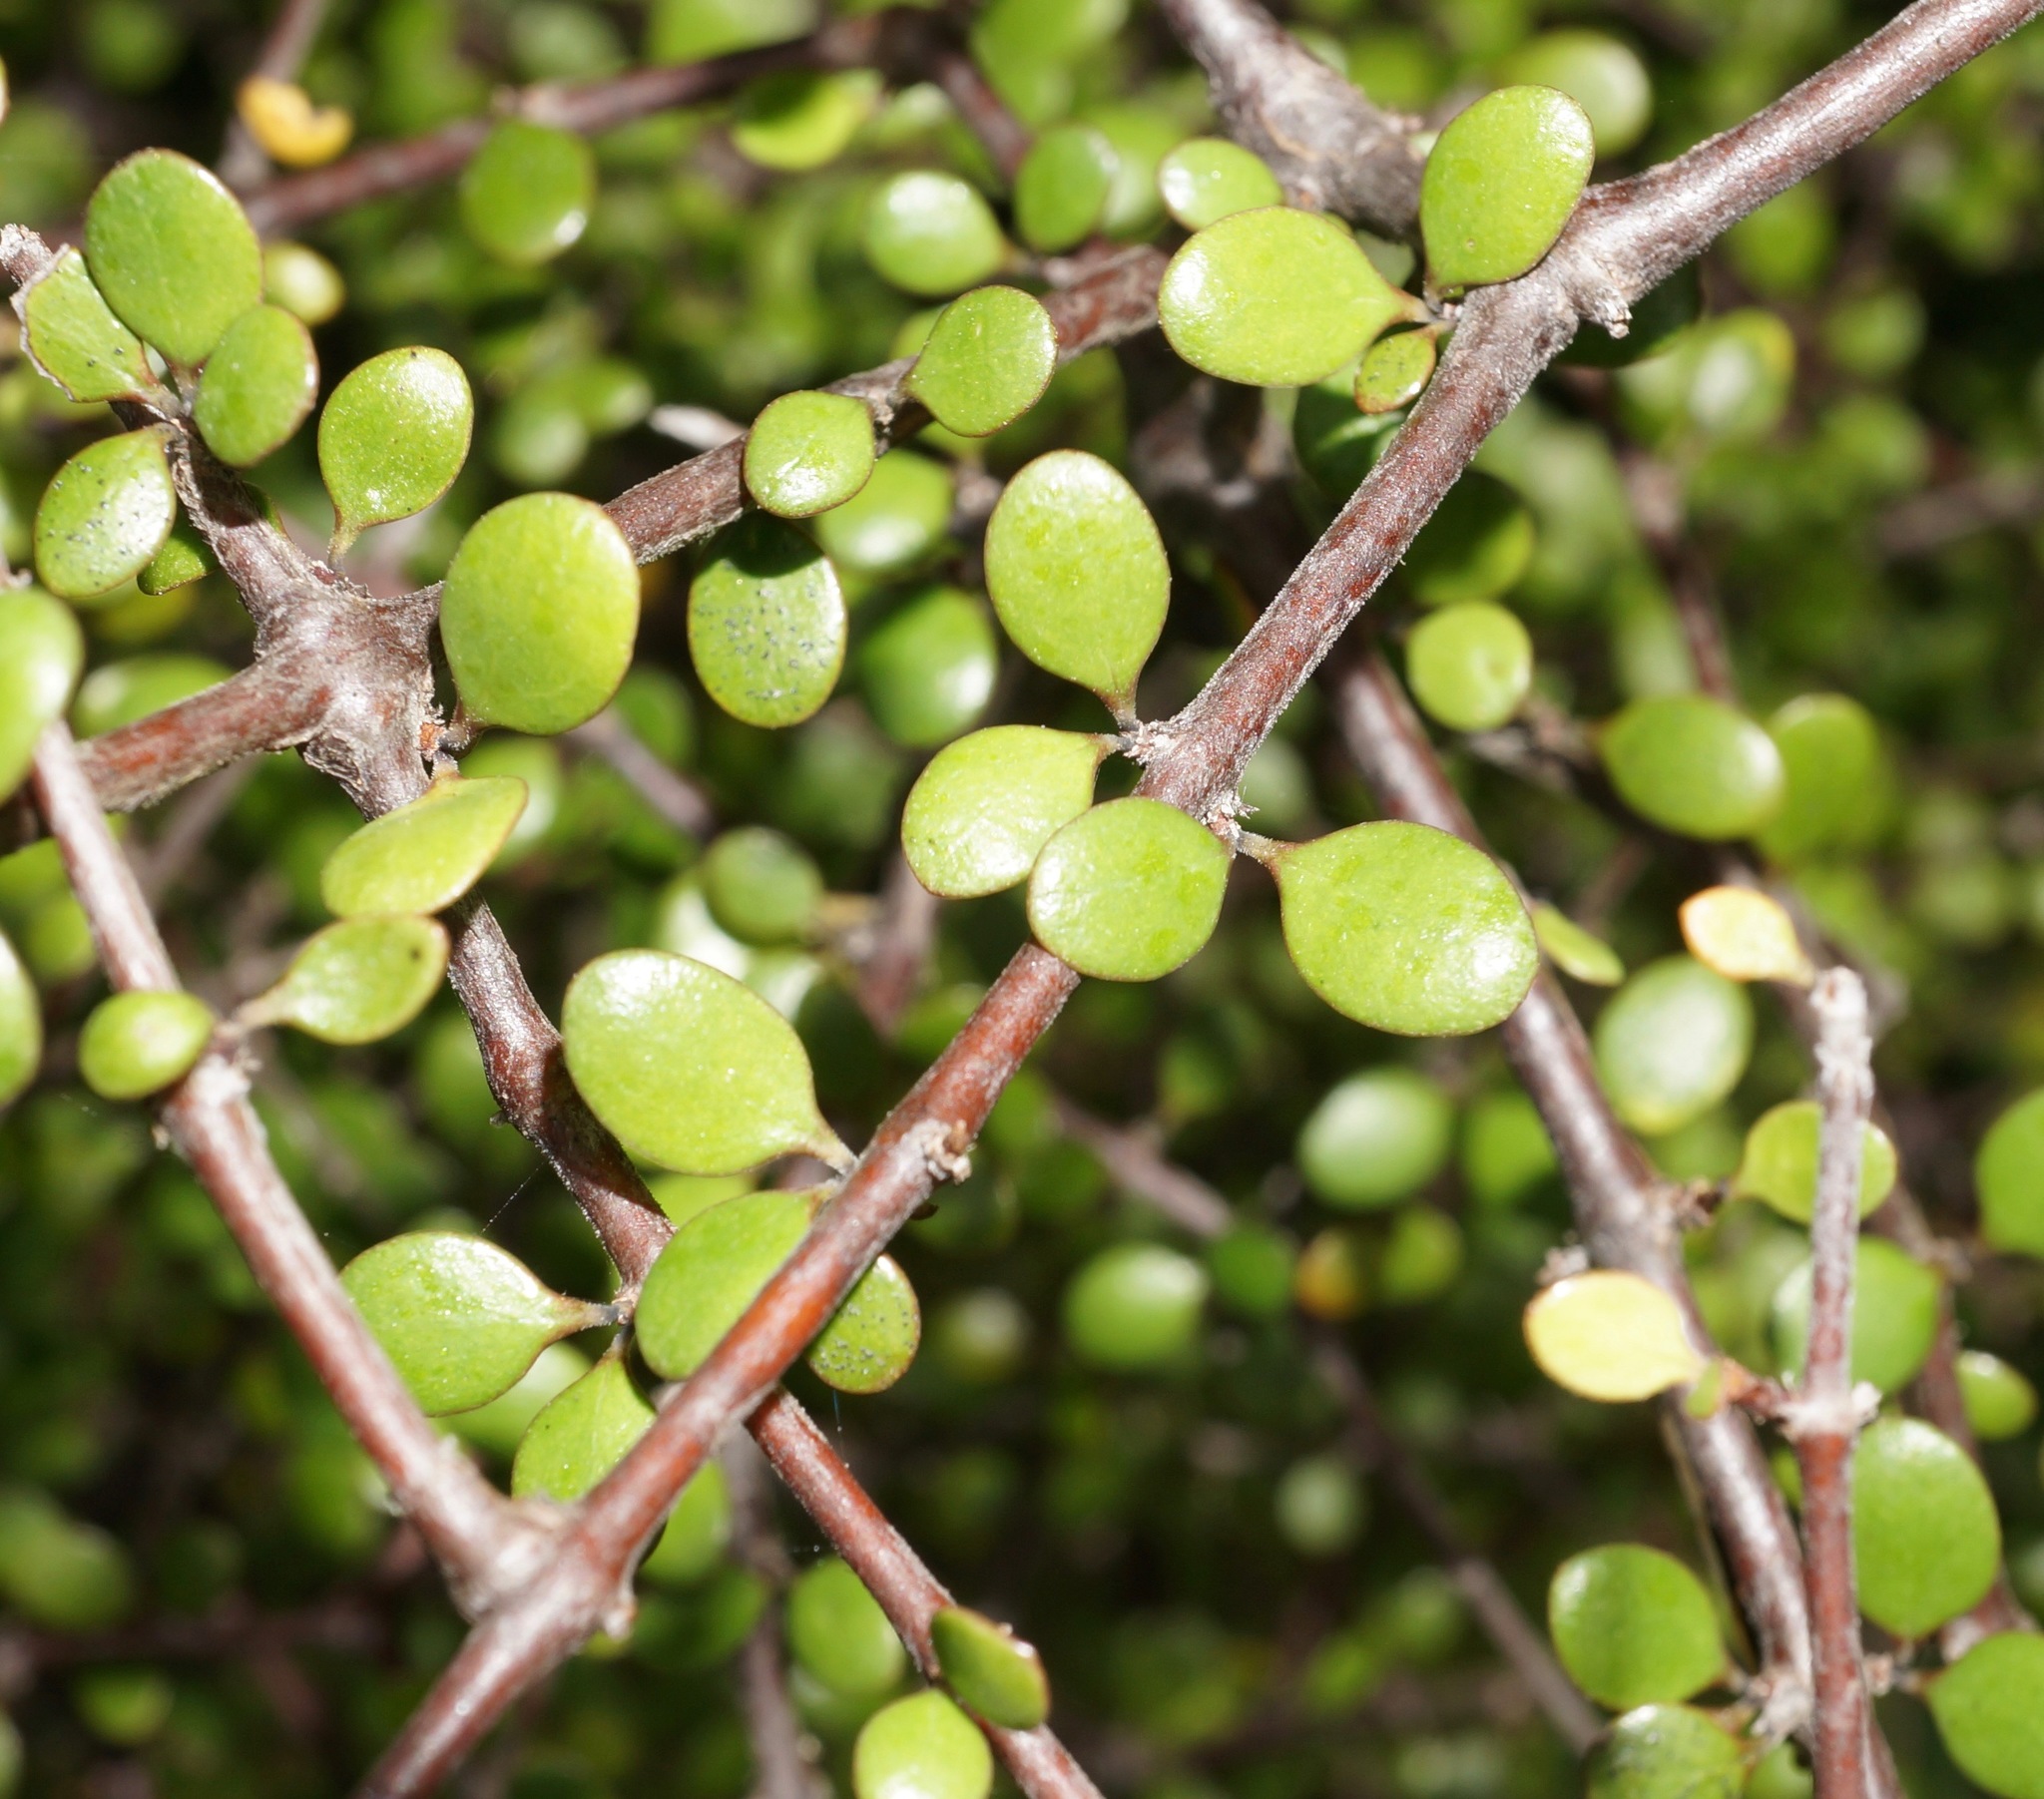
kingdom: Plantae
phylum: Tracheophyta
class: Magnoliopsida
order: Gentianales
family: Rubiaceae
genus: Coprosma
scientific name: Coprosma crassifolia
